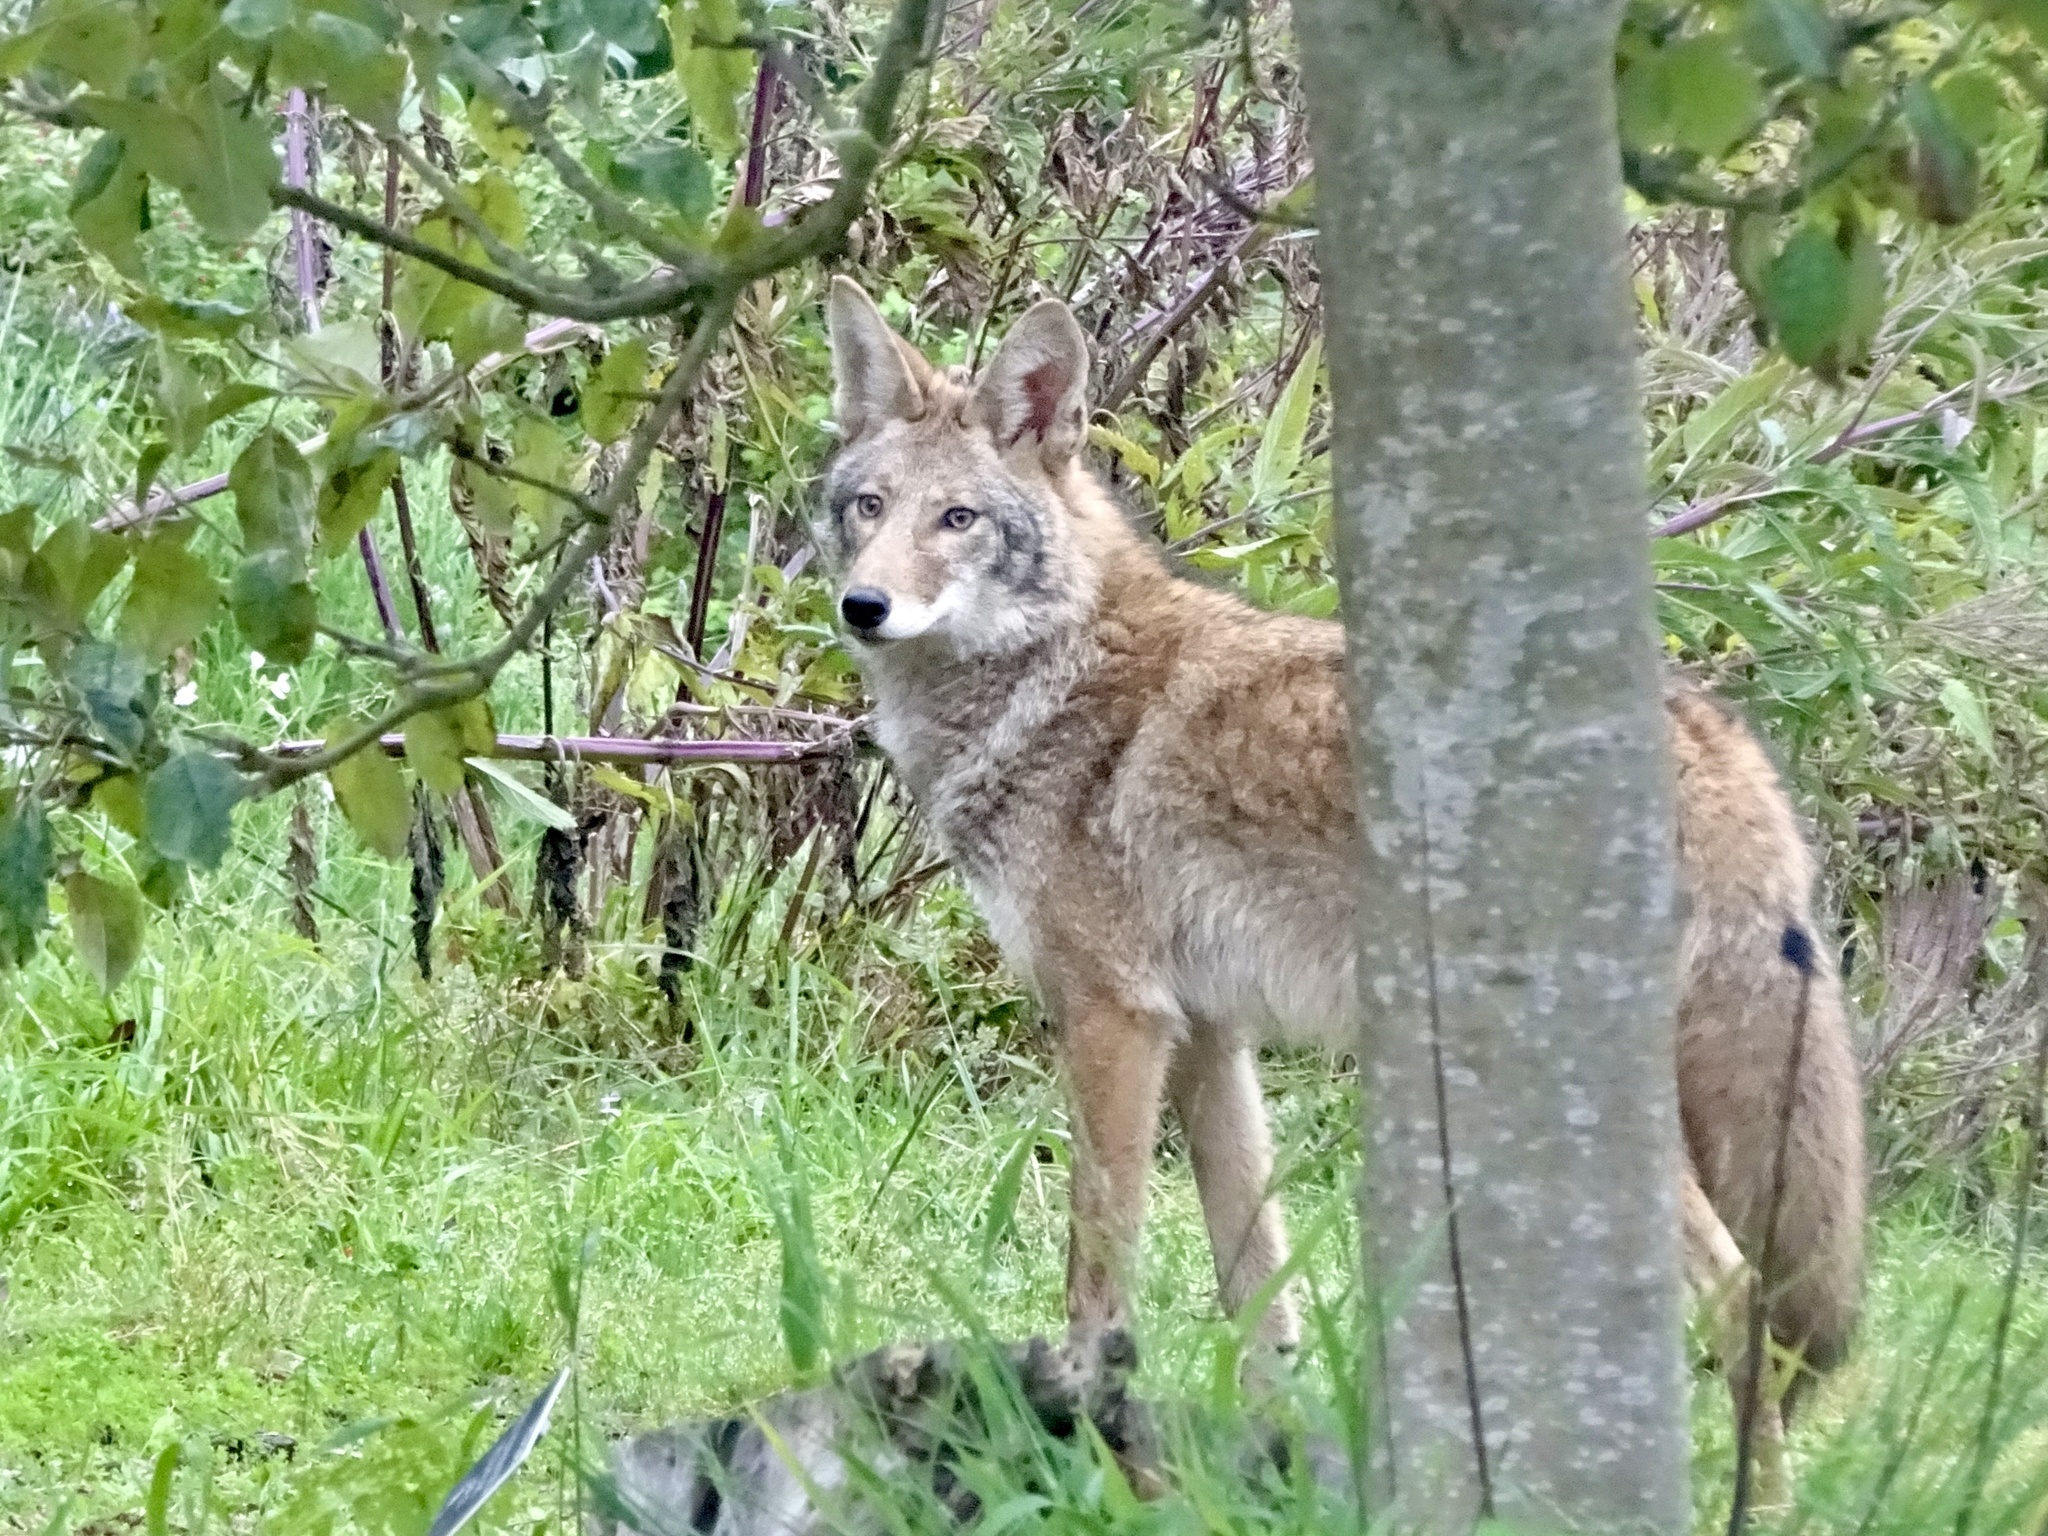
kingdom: Animalia
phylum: Chordata
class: Mammalia
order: Carnivora
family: Canidae
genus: Canis
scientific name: Canis latrans
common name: Coyote
